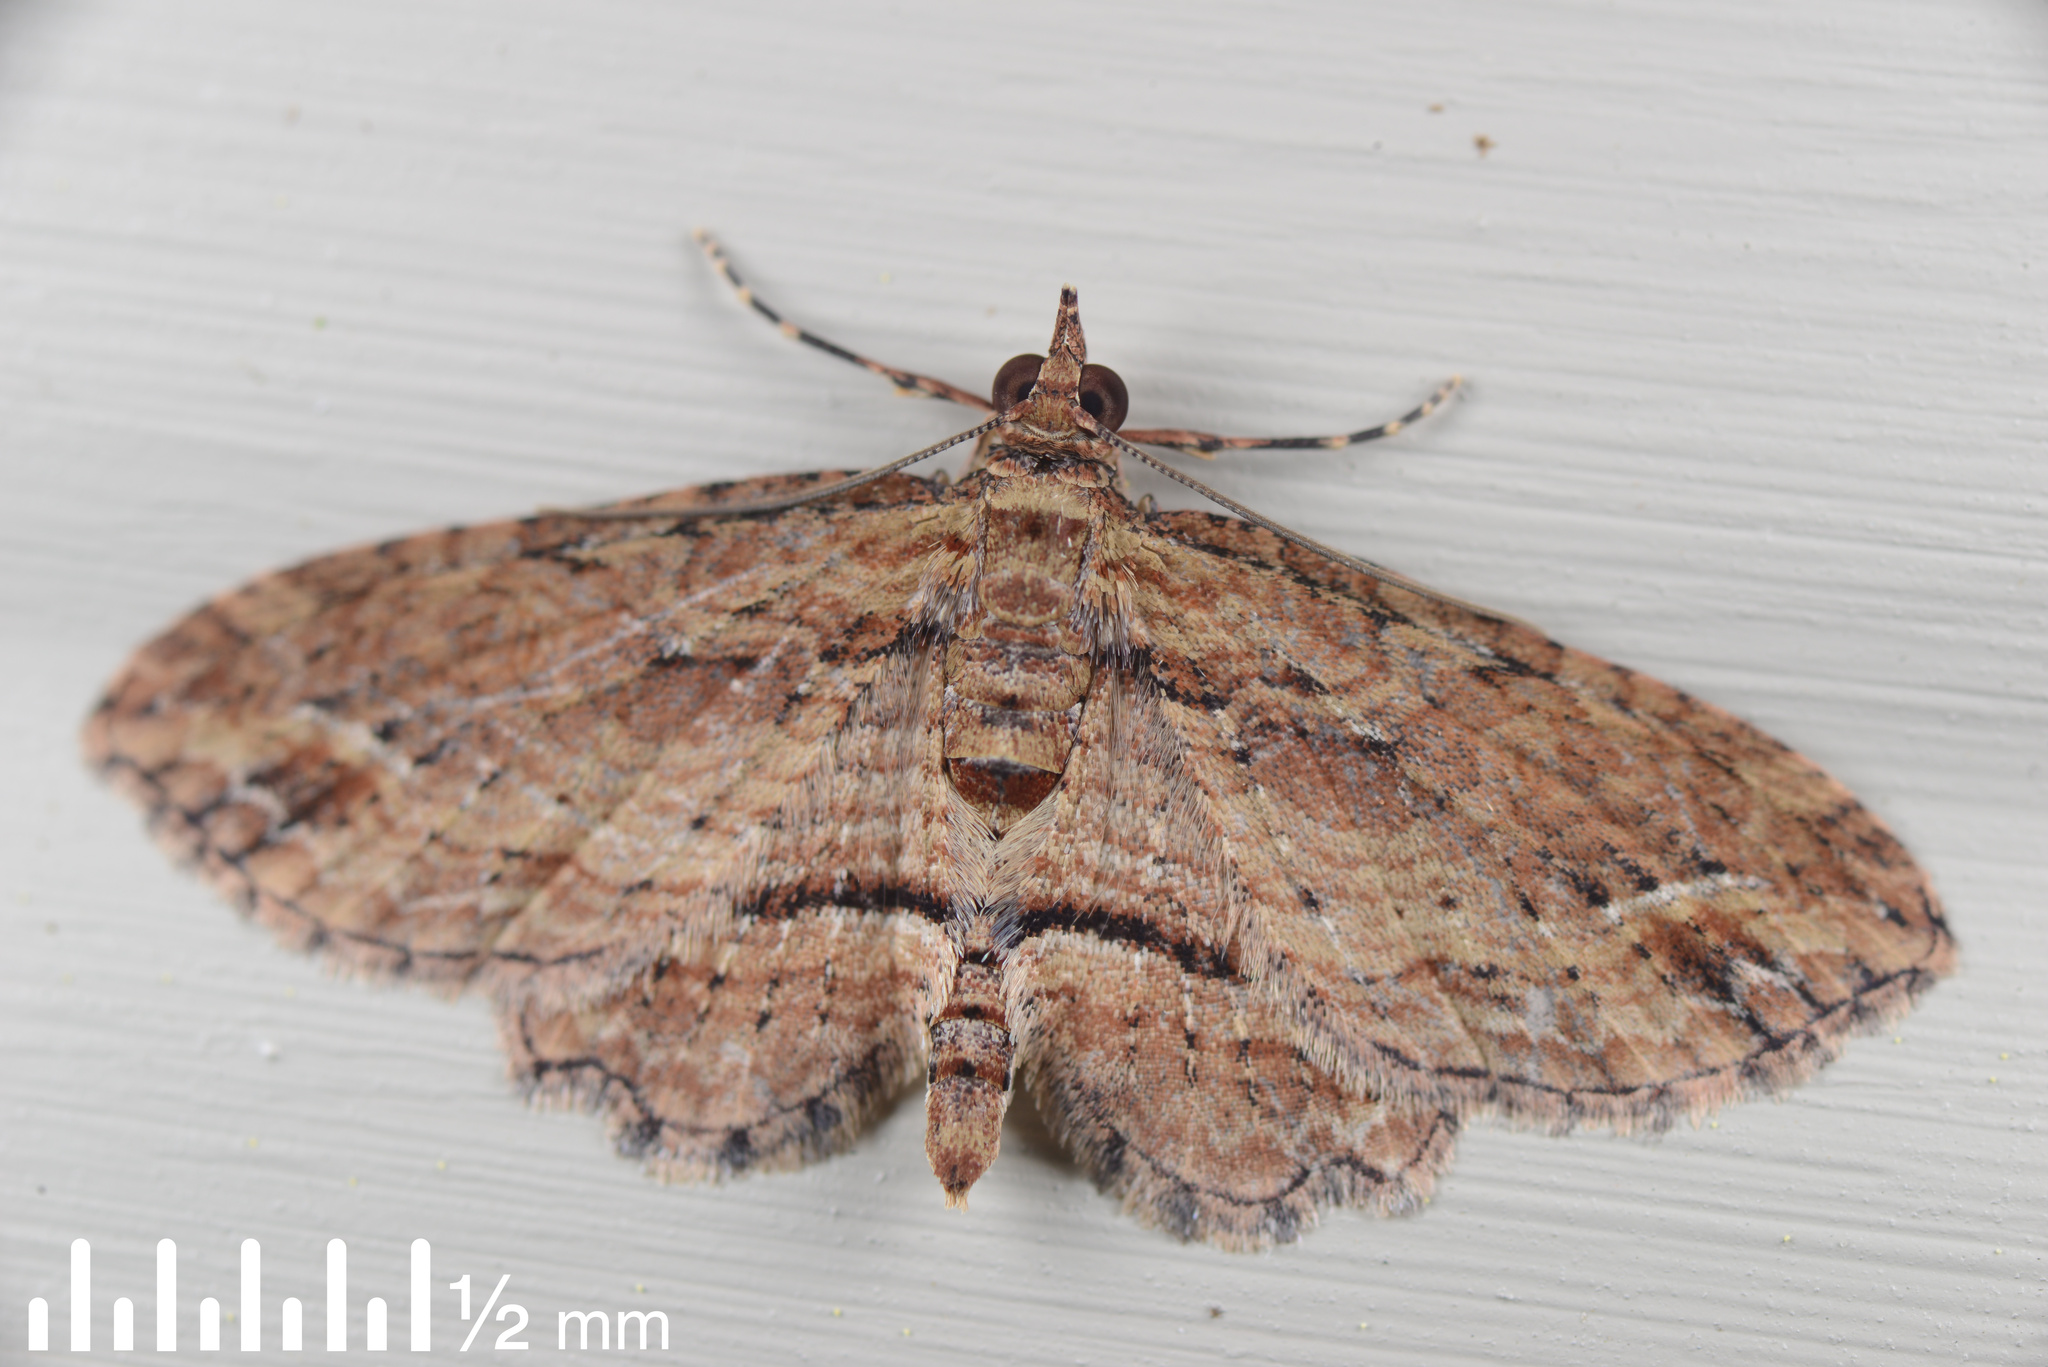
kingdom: Animalia
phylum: Arthropoda
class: Insecta
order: Lepidoptera
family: Geometridae
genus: Chloroclystis
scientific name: Chloroclystis filata
